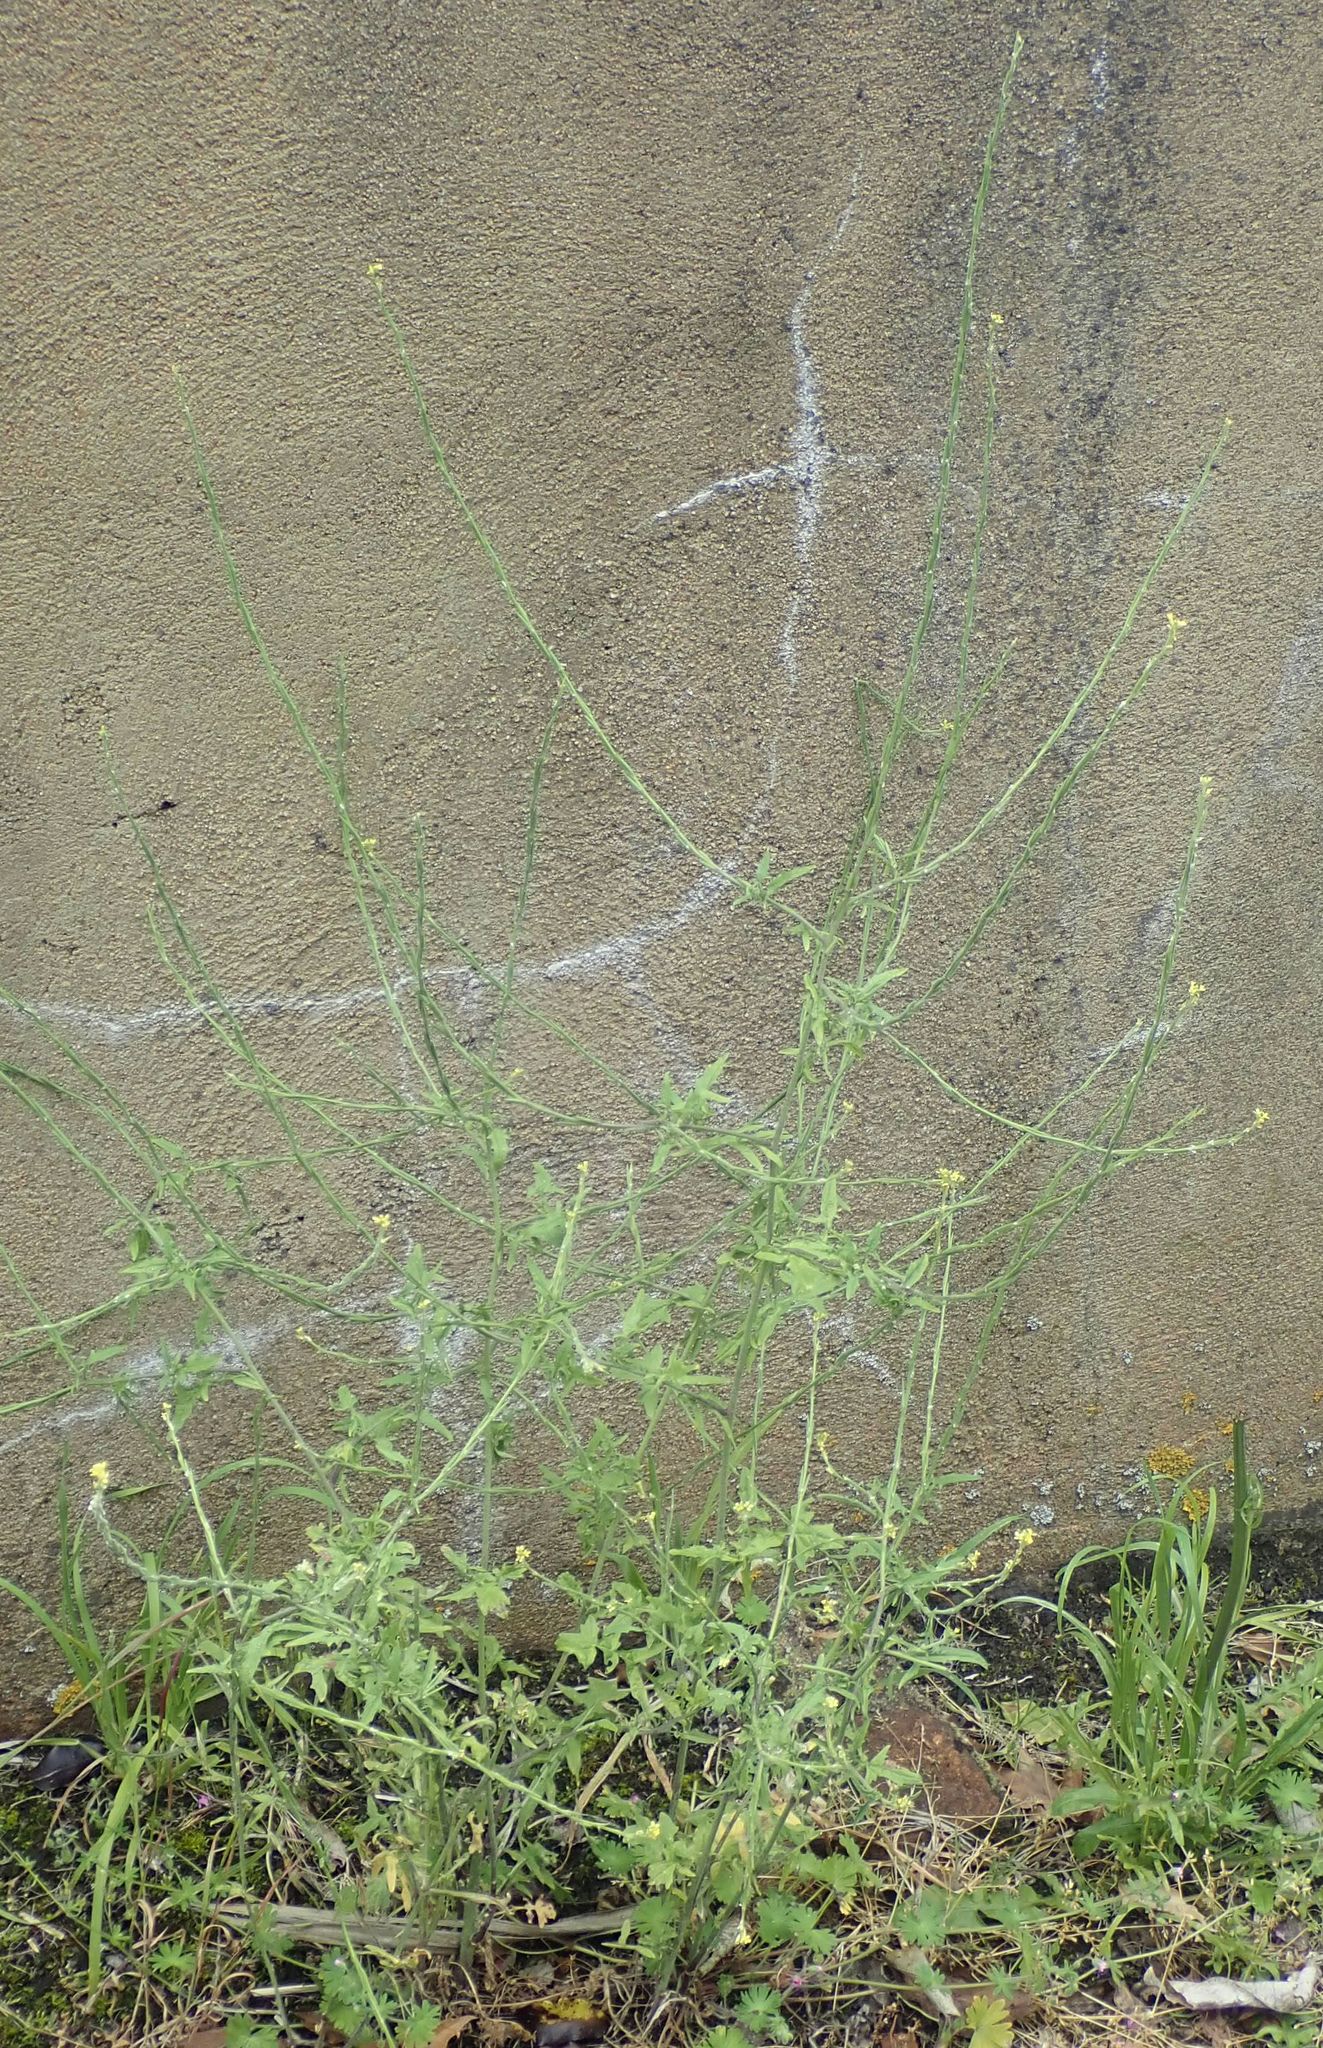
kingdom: Plantae
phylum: Tracheophyta
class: Magnoliopsida
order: Brassicales
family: Brassicaceae
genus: Sisymbrium
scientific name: Sisymbrium officinale
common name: Hedge mustard
